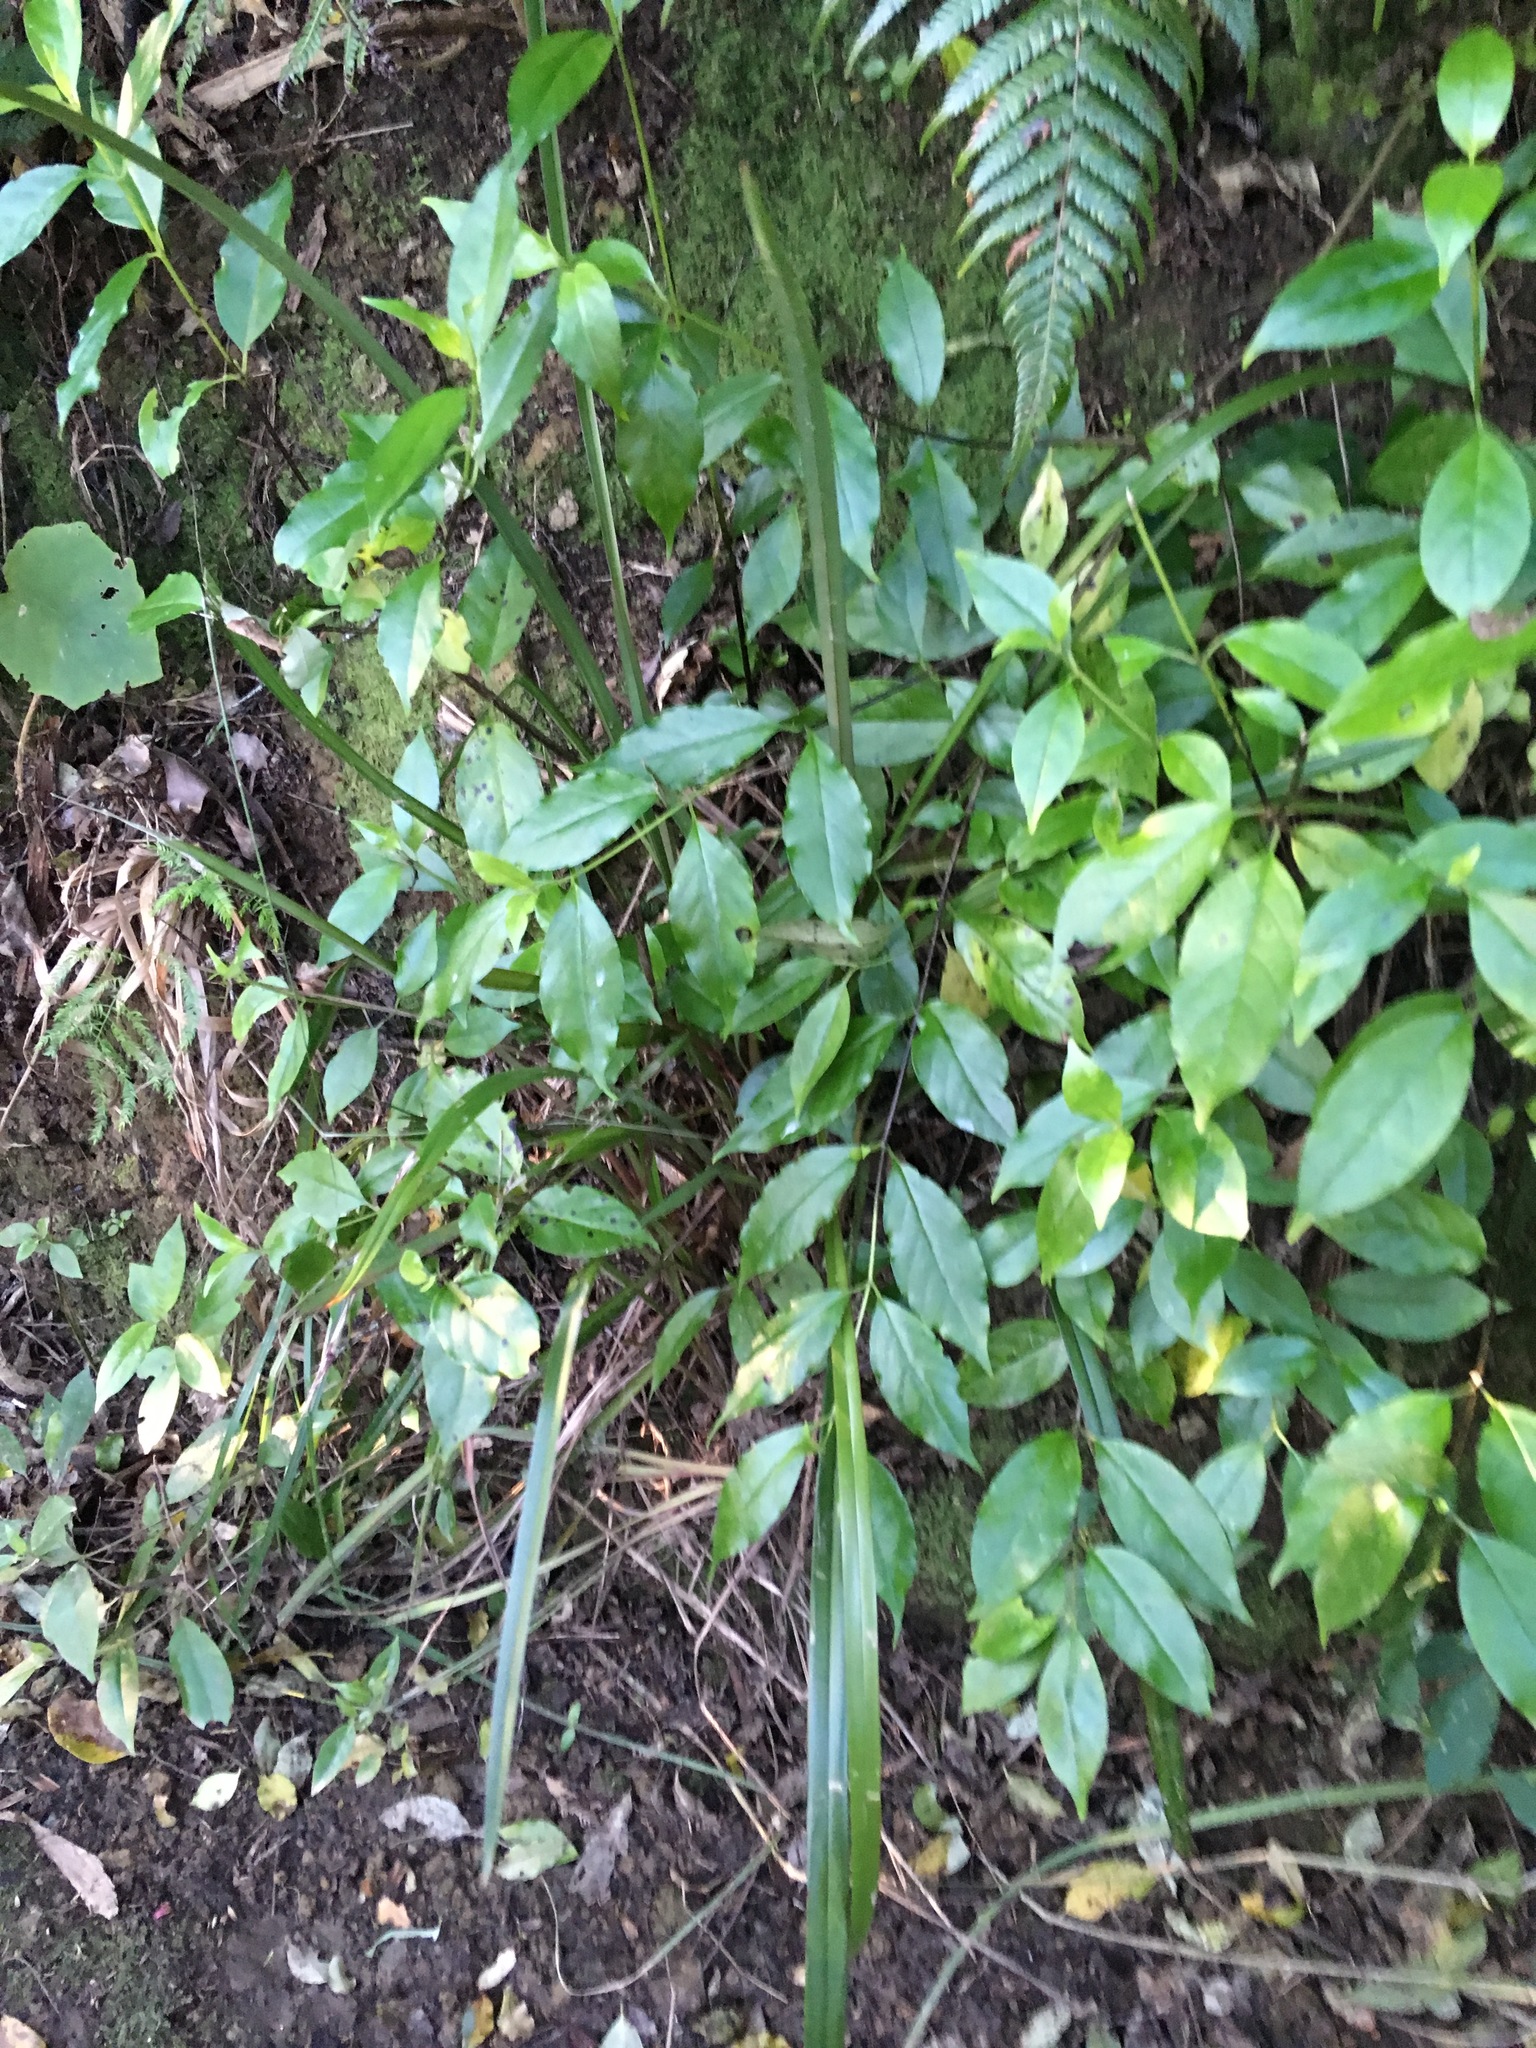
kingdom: Plantae
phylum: Tracheophyta
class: Magnoliopsida
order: Gentianales
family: Loganiaceae
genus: Geniostoma
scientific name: Geniostoma ligustrifolium
